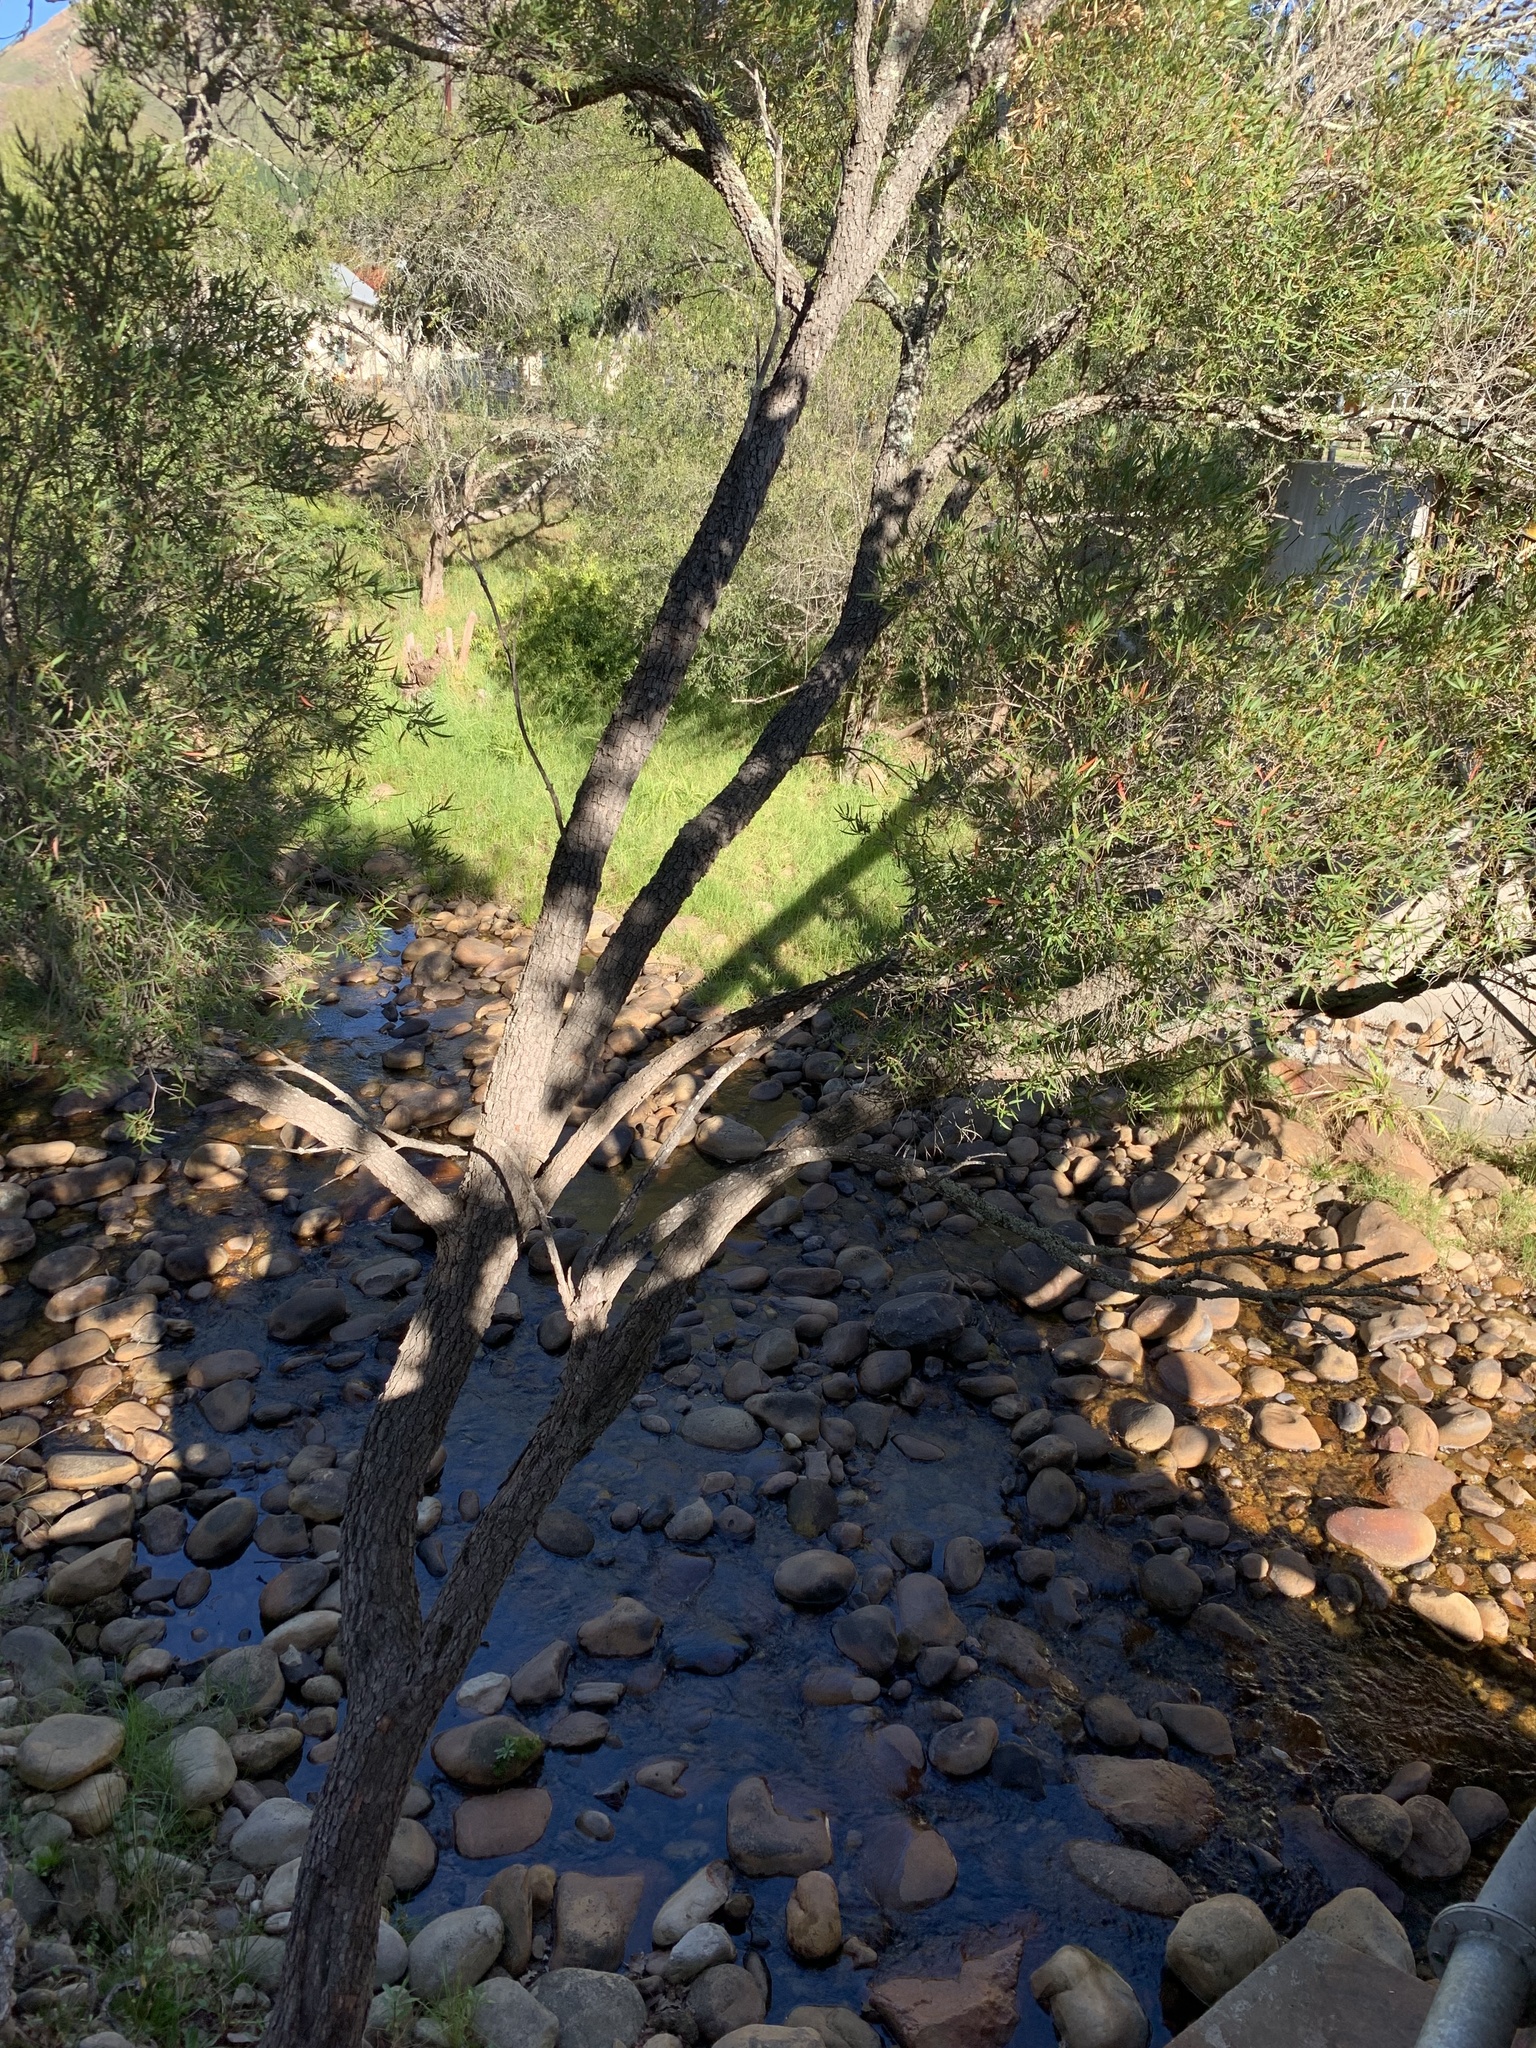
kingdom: Plantae
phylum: Tracheophyta
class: Magnoliopsida
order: Myrtales
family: Myrtaceae
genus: Callistemon
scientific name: Callistemon lanceolatus
